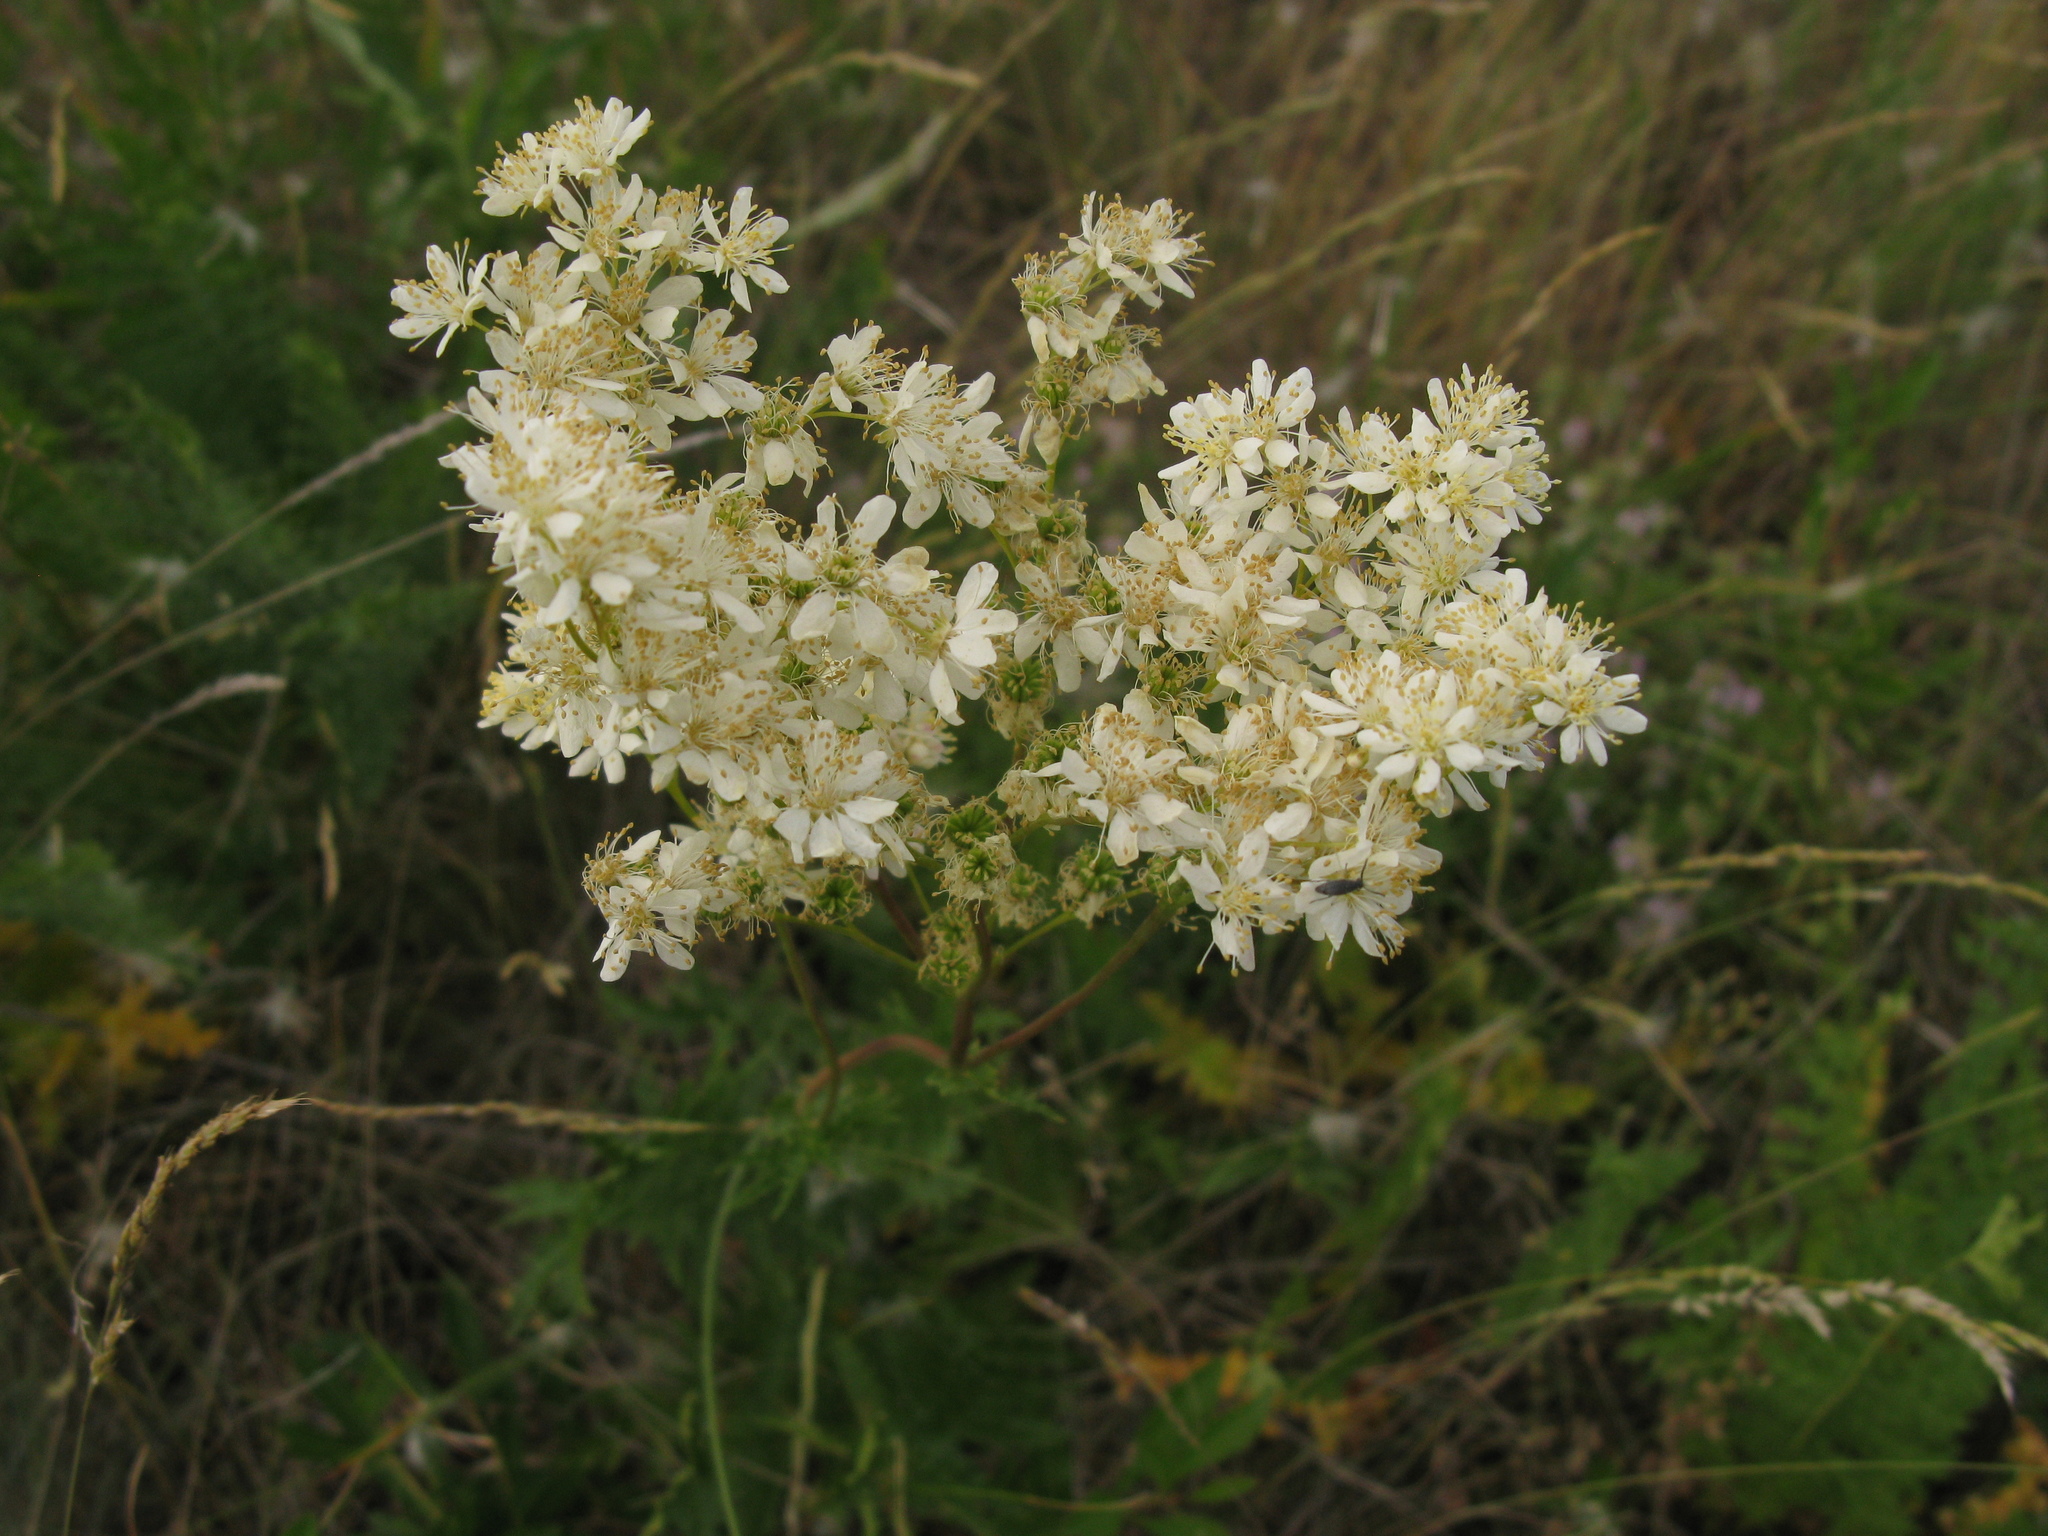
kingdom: Plantae
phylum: Tracheophyta
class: Magnoliopsida
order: Rosales
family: Rosaceae
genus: Filipendula
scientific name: Filipendula vulgaris
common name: Dropwort
